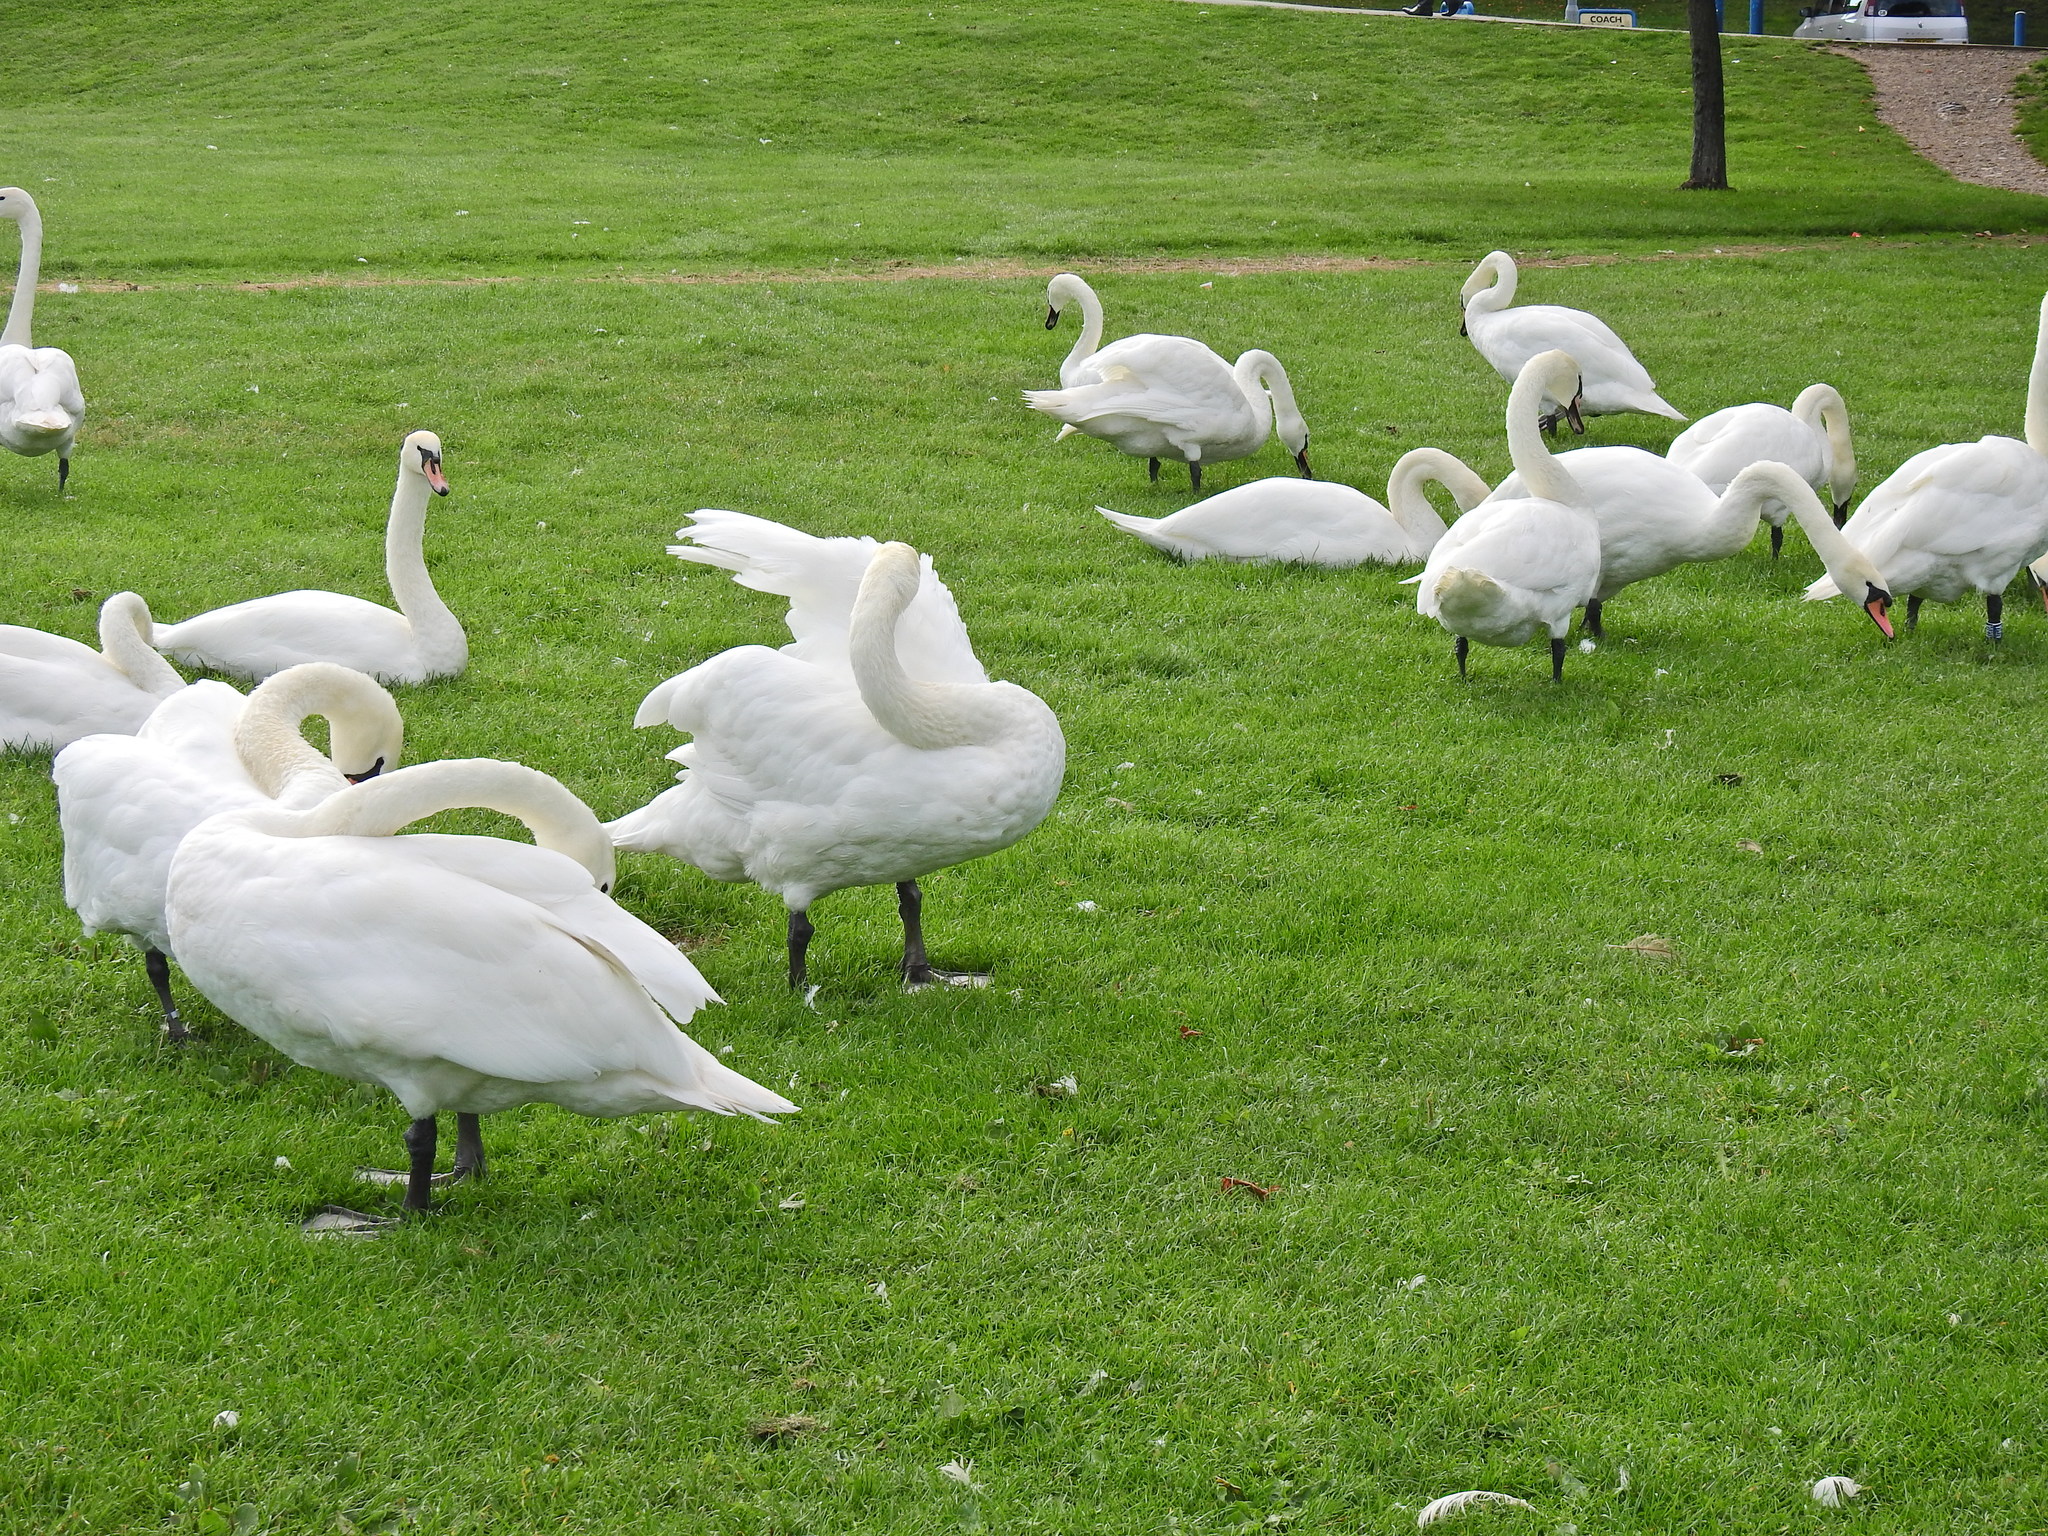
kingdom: Animalia
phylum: Chordata
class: Aves
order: Anseriformes
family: Anatidae
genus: Cygnus
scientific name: Cygnus olor
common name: Mute swan
